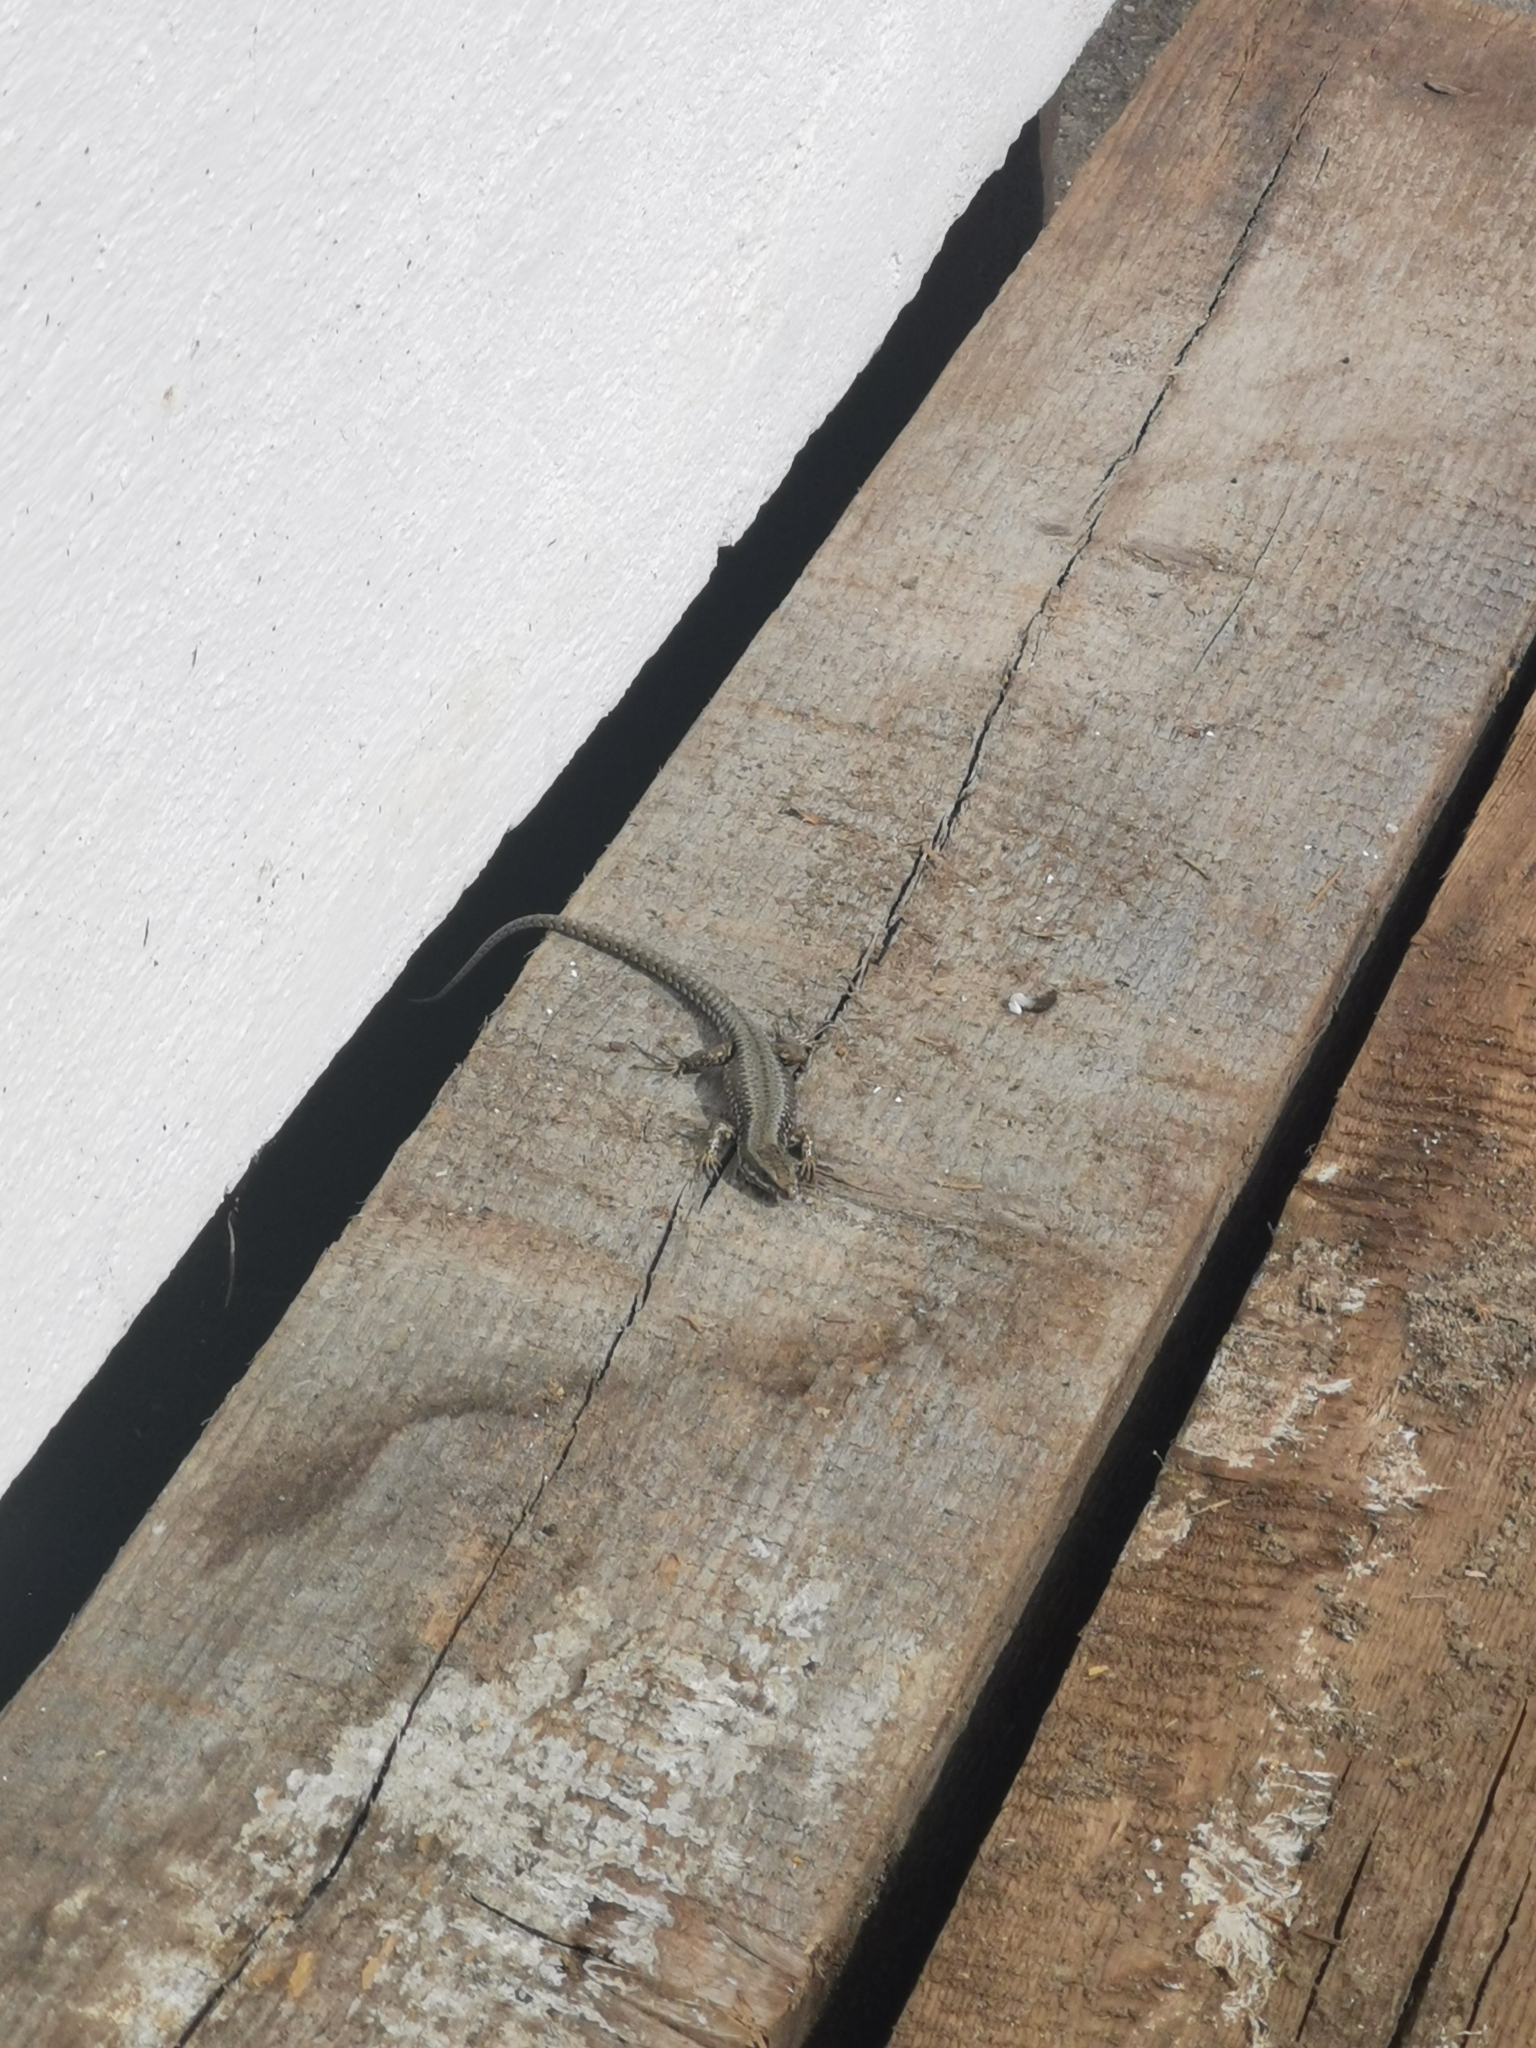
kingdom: Animalia
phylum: Chordata
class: Squamata
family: Lacertidae
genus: Podarcis
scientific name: Podarcis muralis
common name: Common wall lizard
